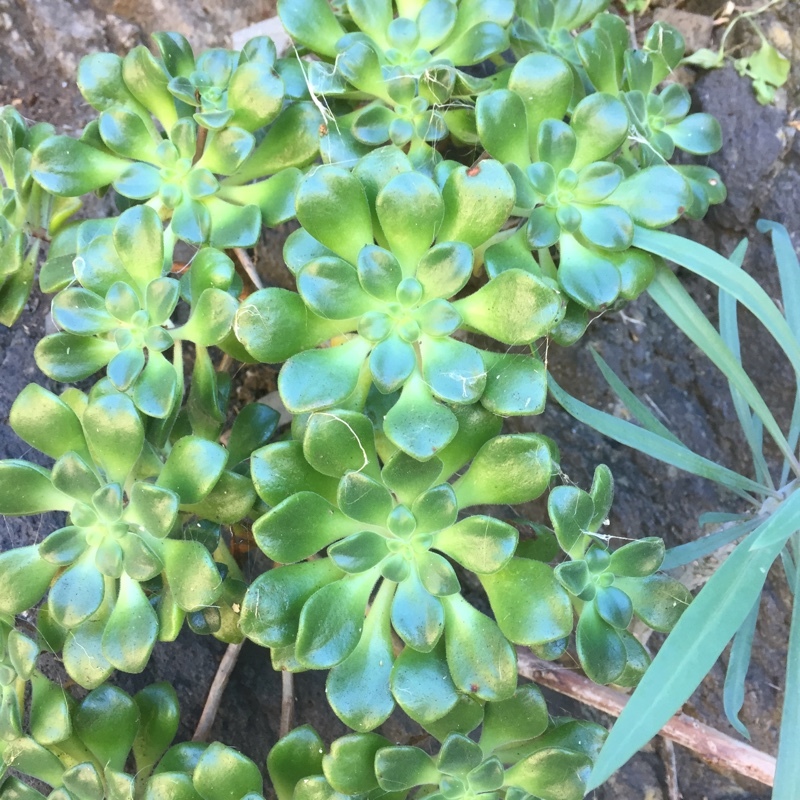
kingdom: Plantae
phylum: Tracheophyta
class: Magnoliopsida
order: Saxifragales
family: Crassulaceae
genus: Aeonium
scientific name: Aeonium lindleyi
